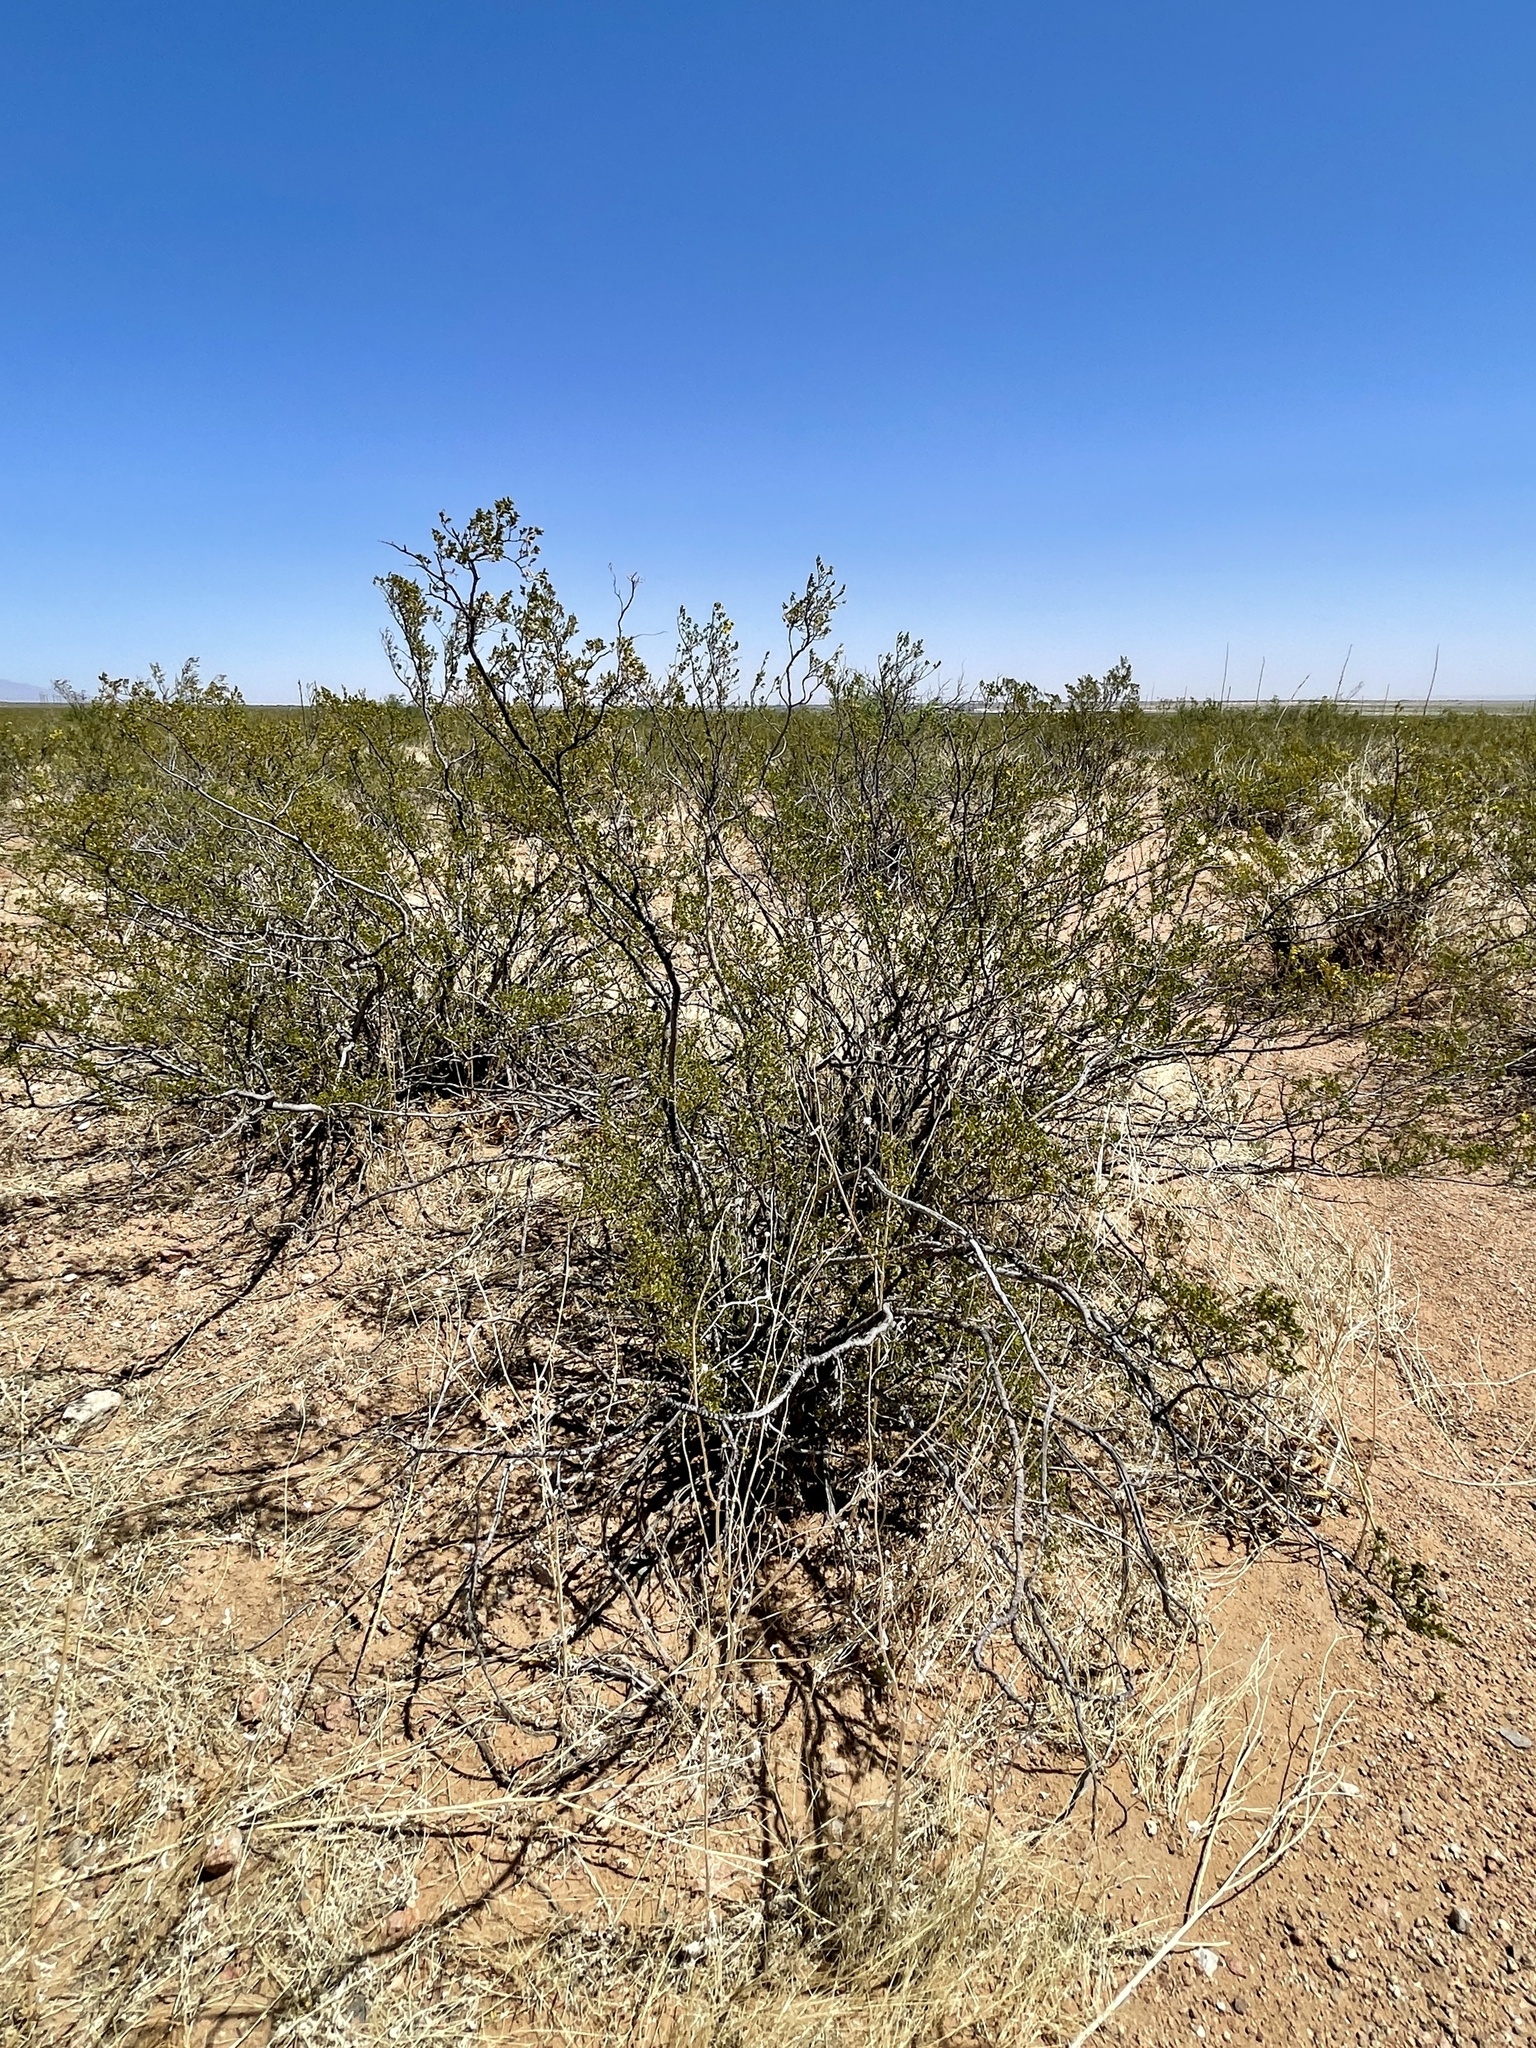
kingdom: Plantae
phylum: Tracheophyta
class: Magnoliopsida
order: Zygophyllales
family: Zygophyllaceae
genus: Larrea
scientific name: Larrea tridentata
